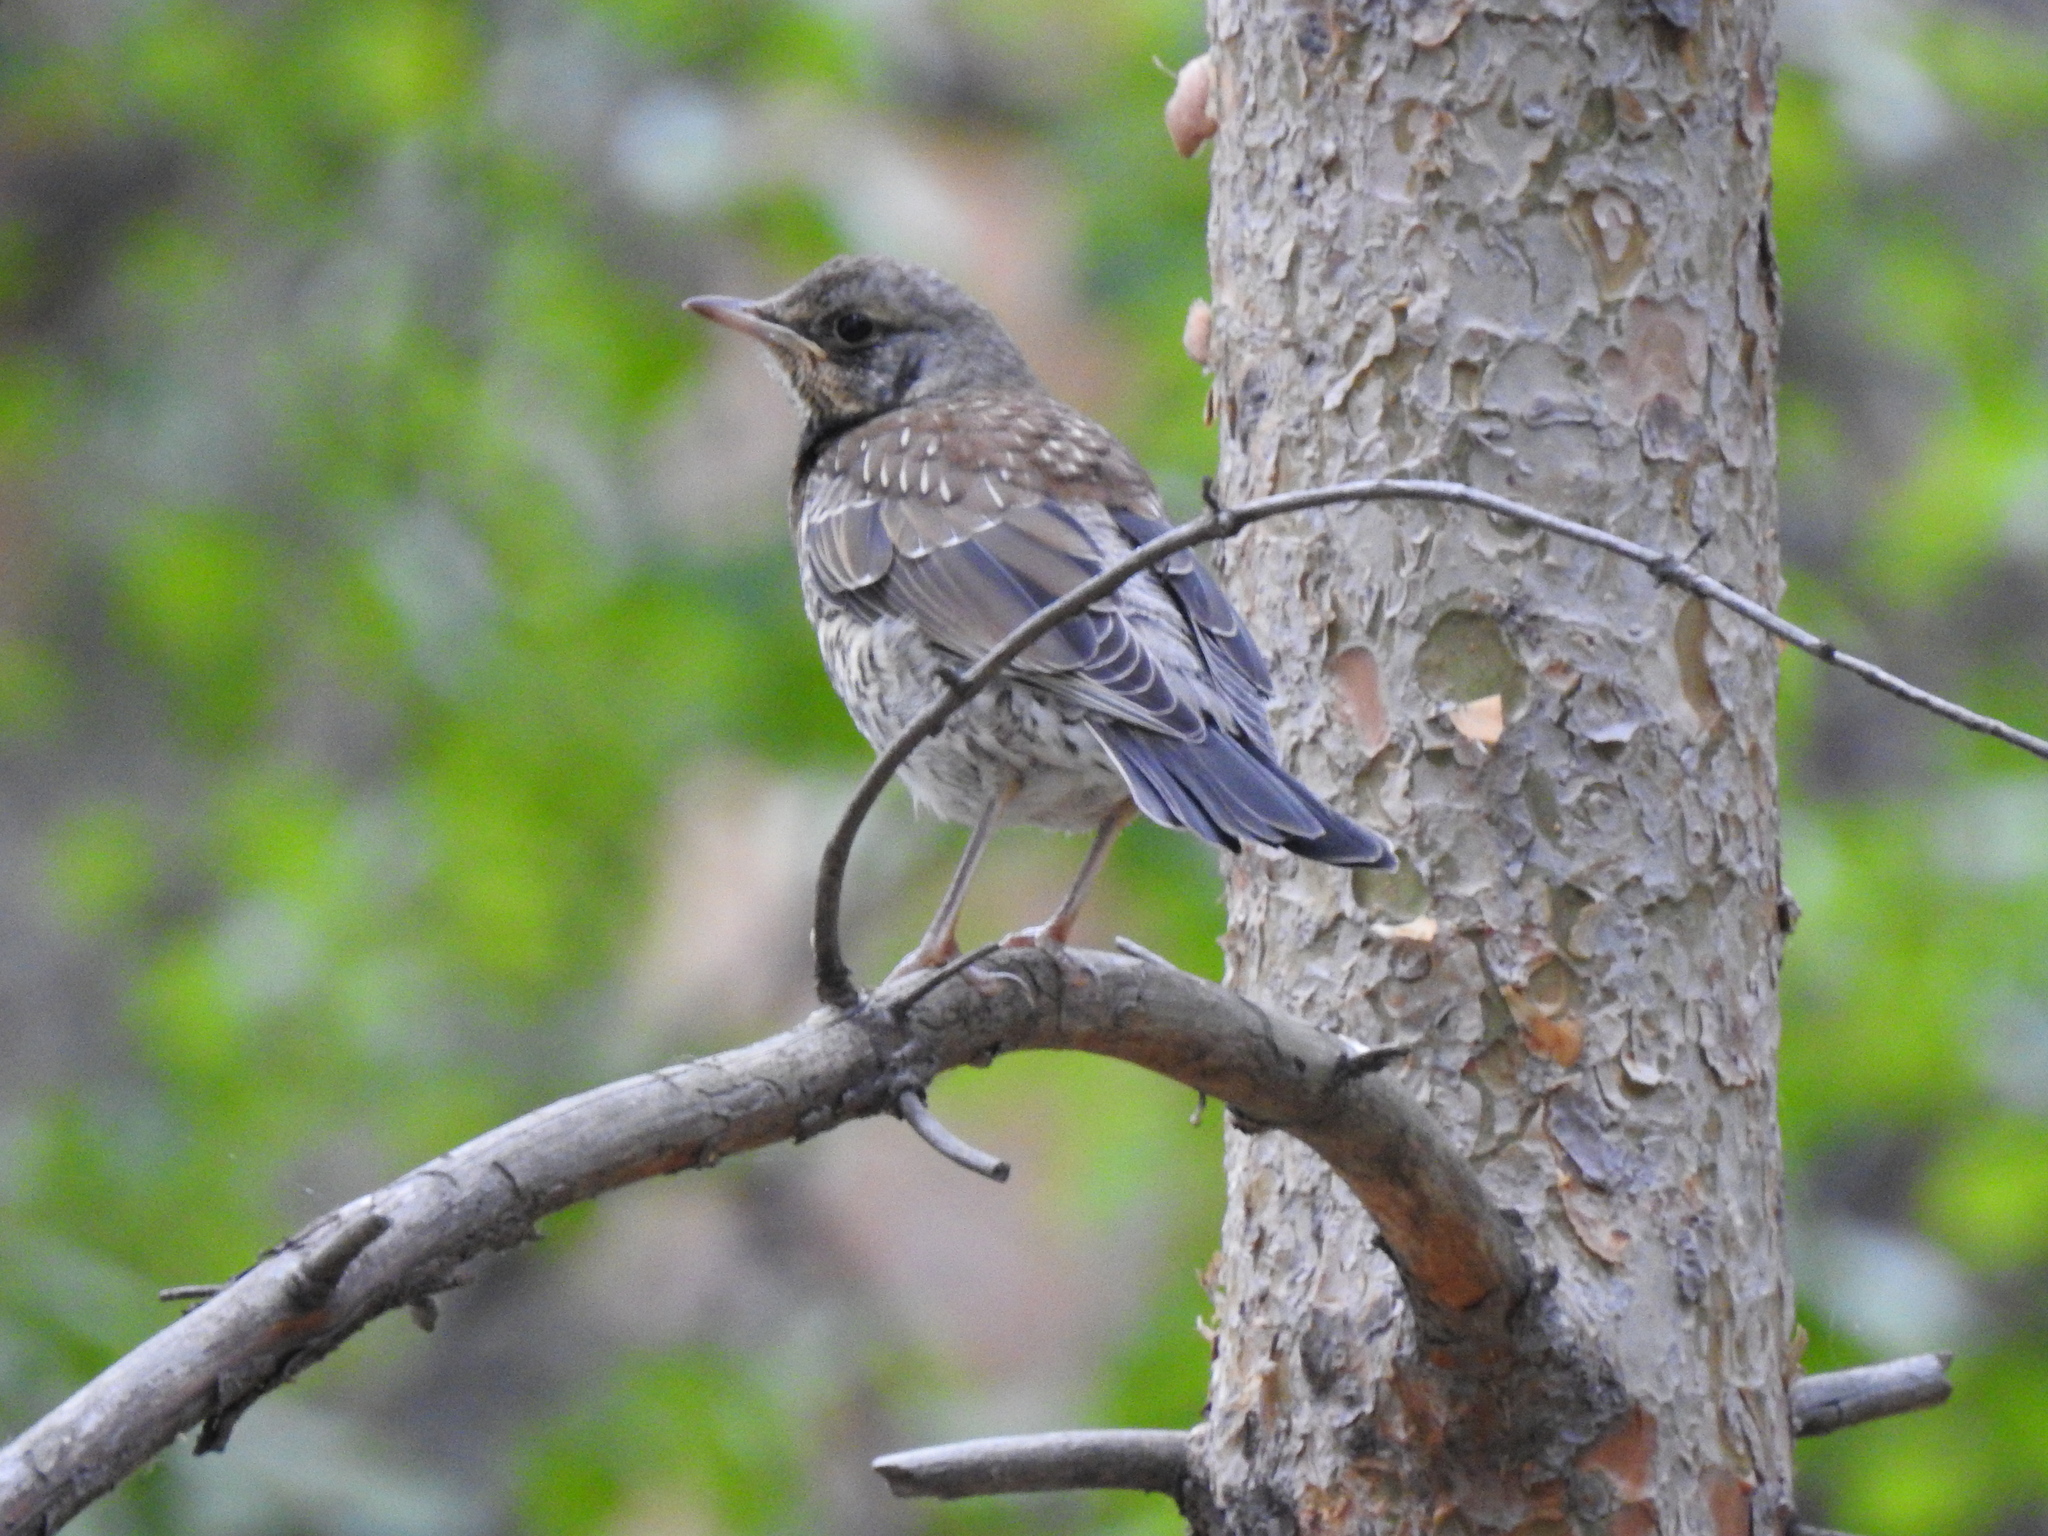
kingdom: Animalia
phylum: Chordata
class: Aves
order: Passeriformes
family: Turdidae
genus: Turdus
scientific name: Turdus pilaris
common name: Fieldfare
